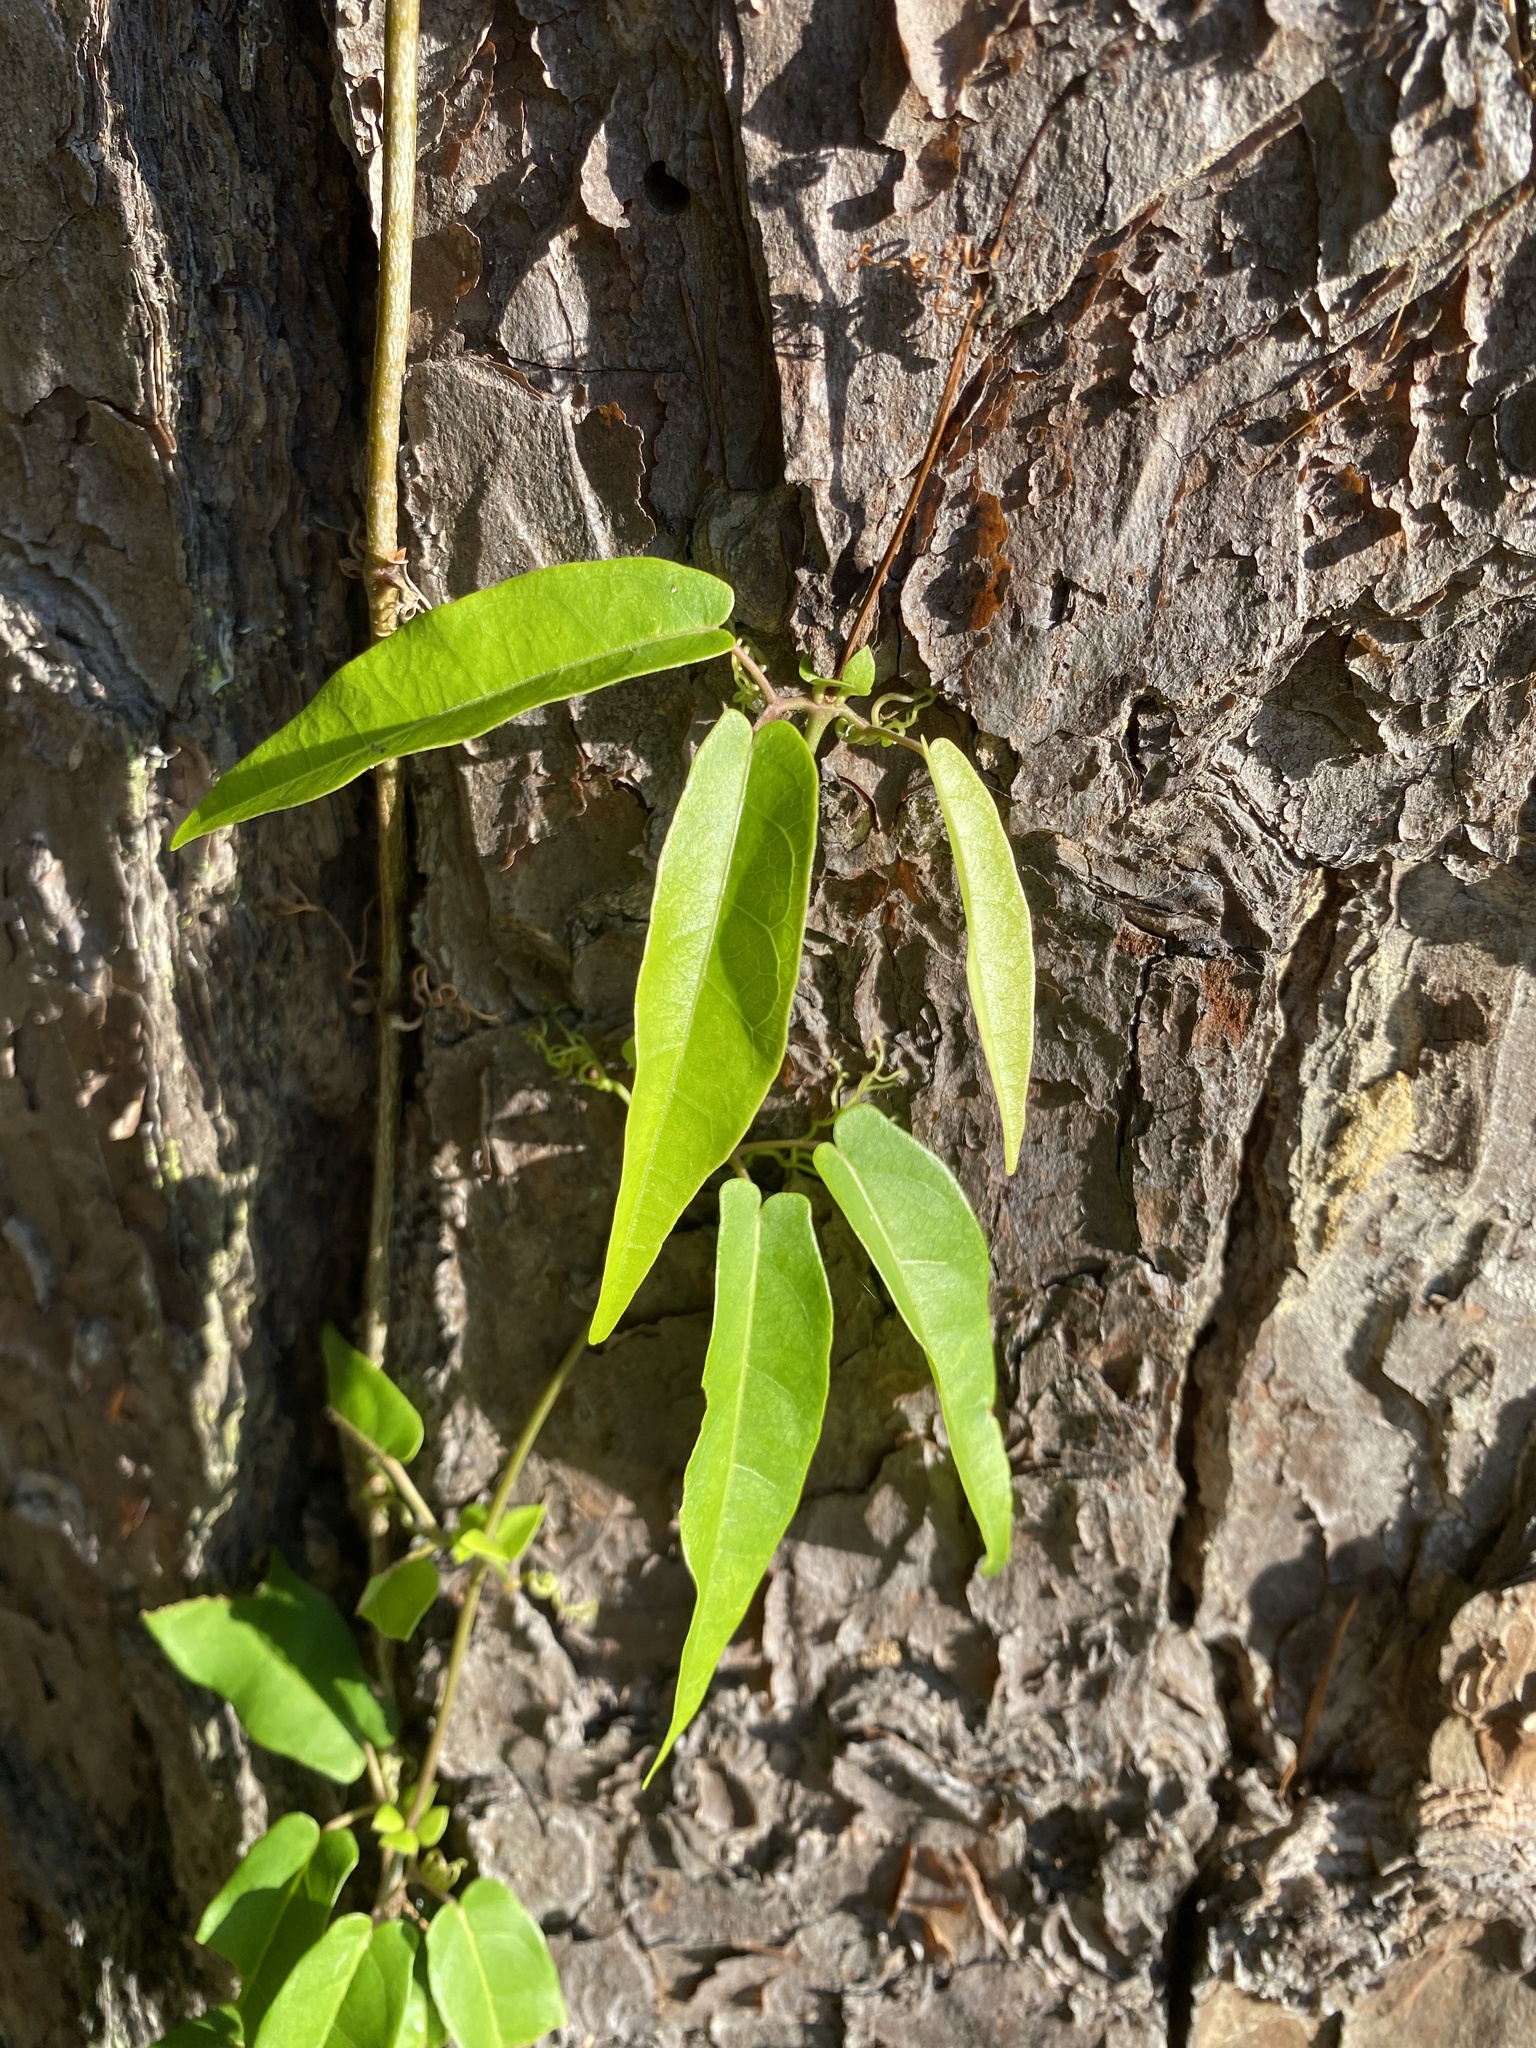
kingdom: Plantae
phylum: Tracheophyta
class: Magnoliopsida
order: Lamiales
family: Bignoniaceae
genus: Bignonia
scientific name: Bignonia capreolata
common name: Crossvine
